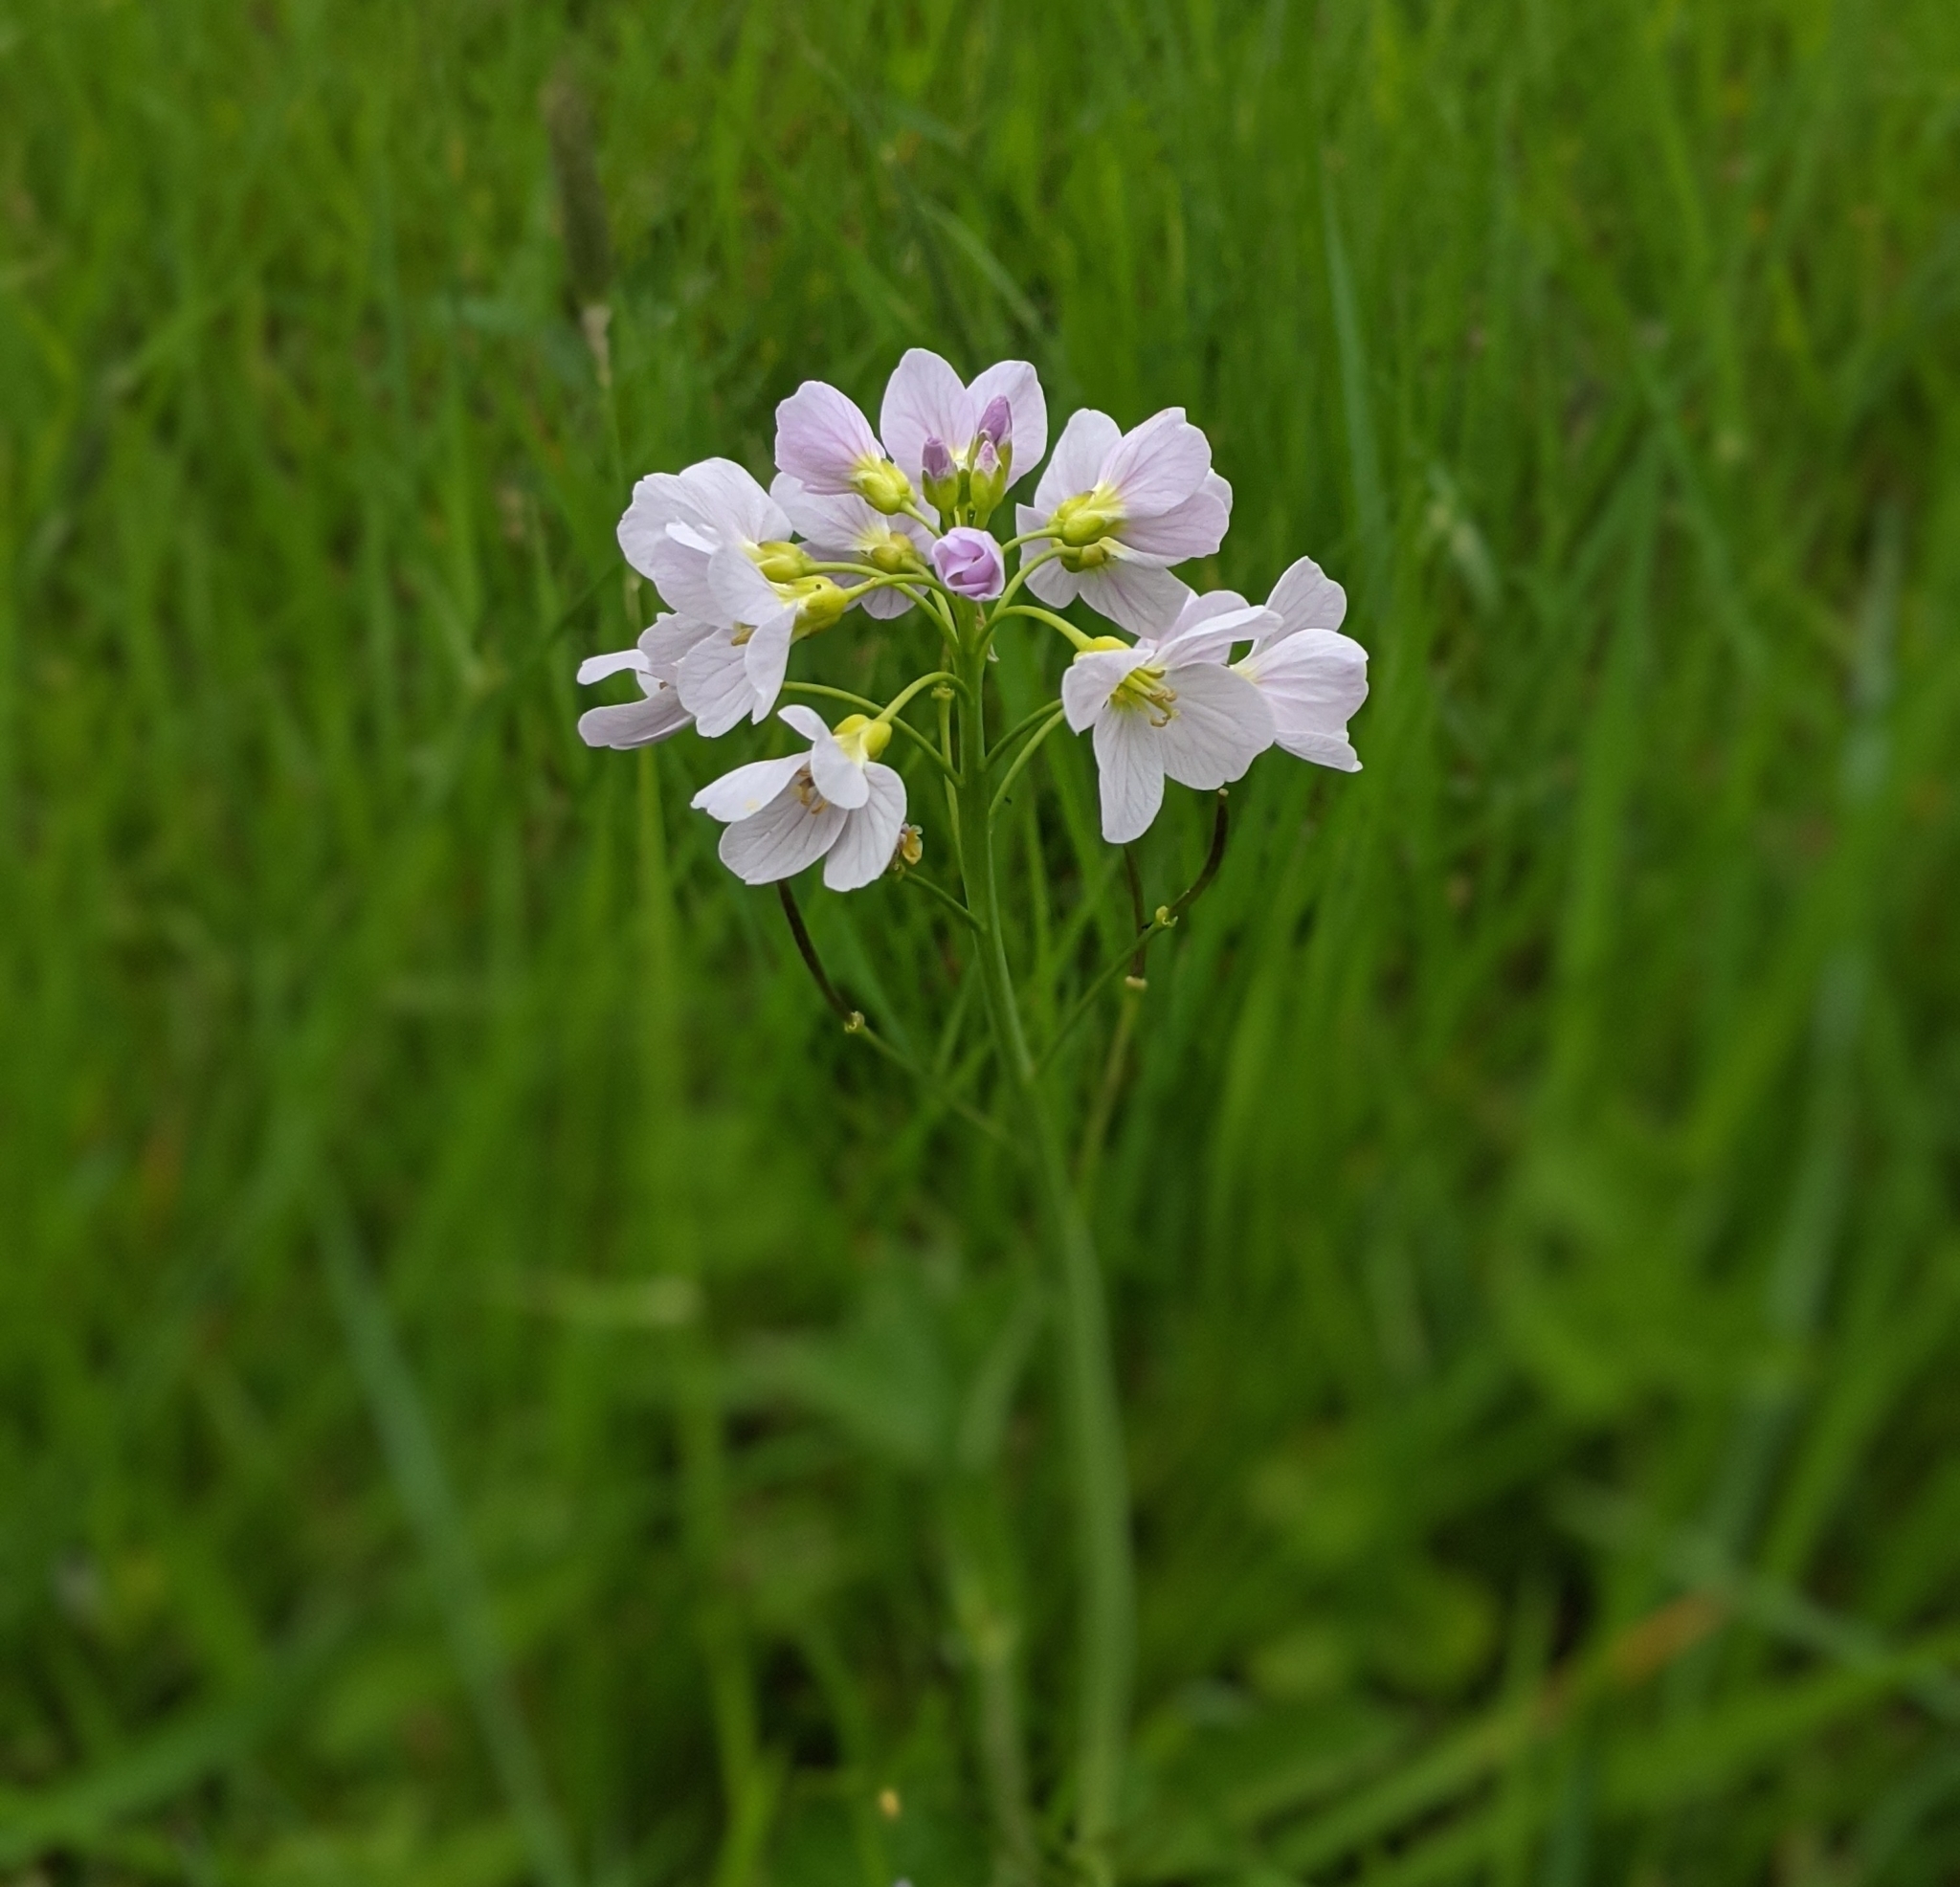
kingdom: Plantae
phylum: Tracheophyta
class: Magnoliopsida
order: Brassicales
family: Brassicaceae
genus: Cardamine
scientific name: Cardamine pratensis
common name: Cuckoo flower
